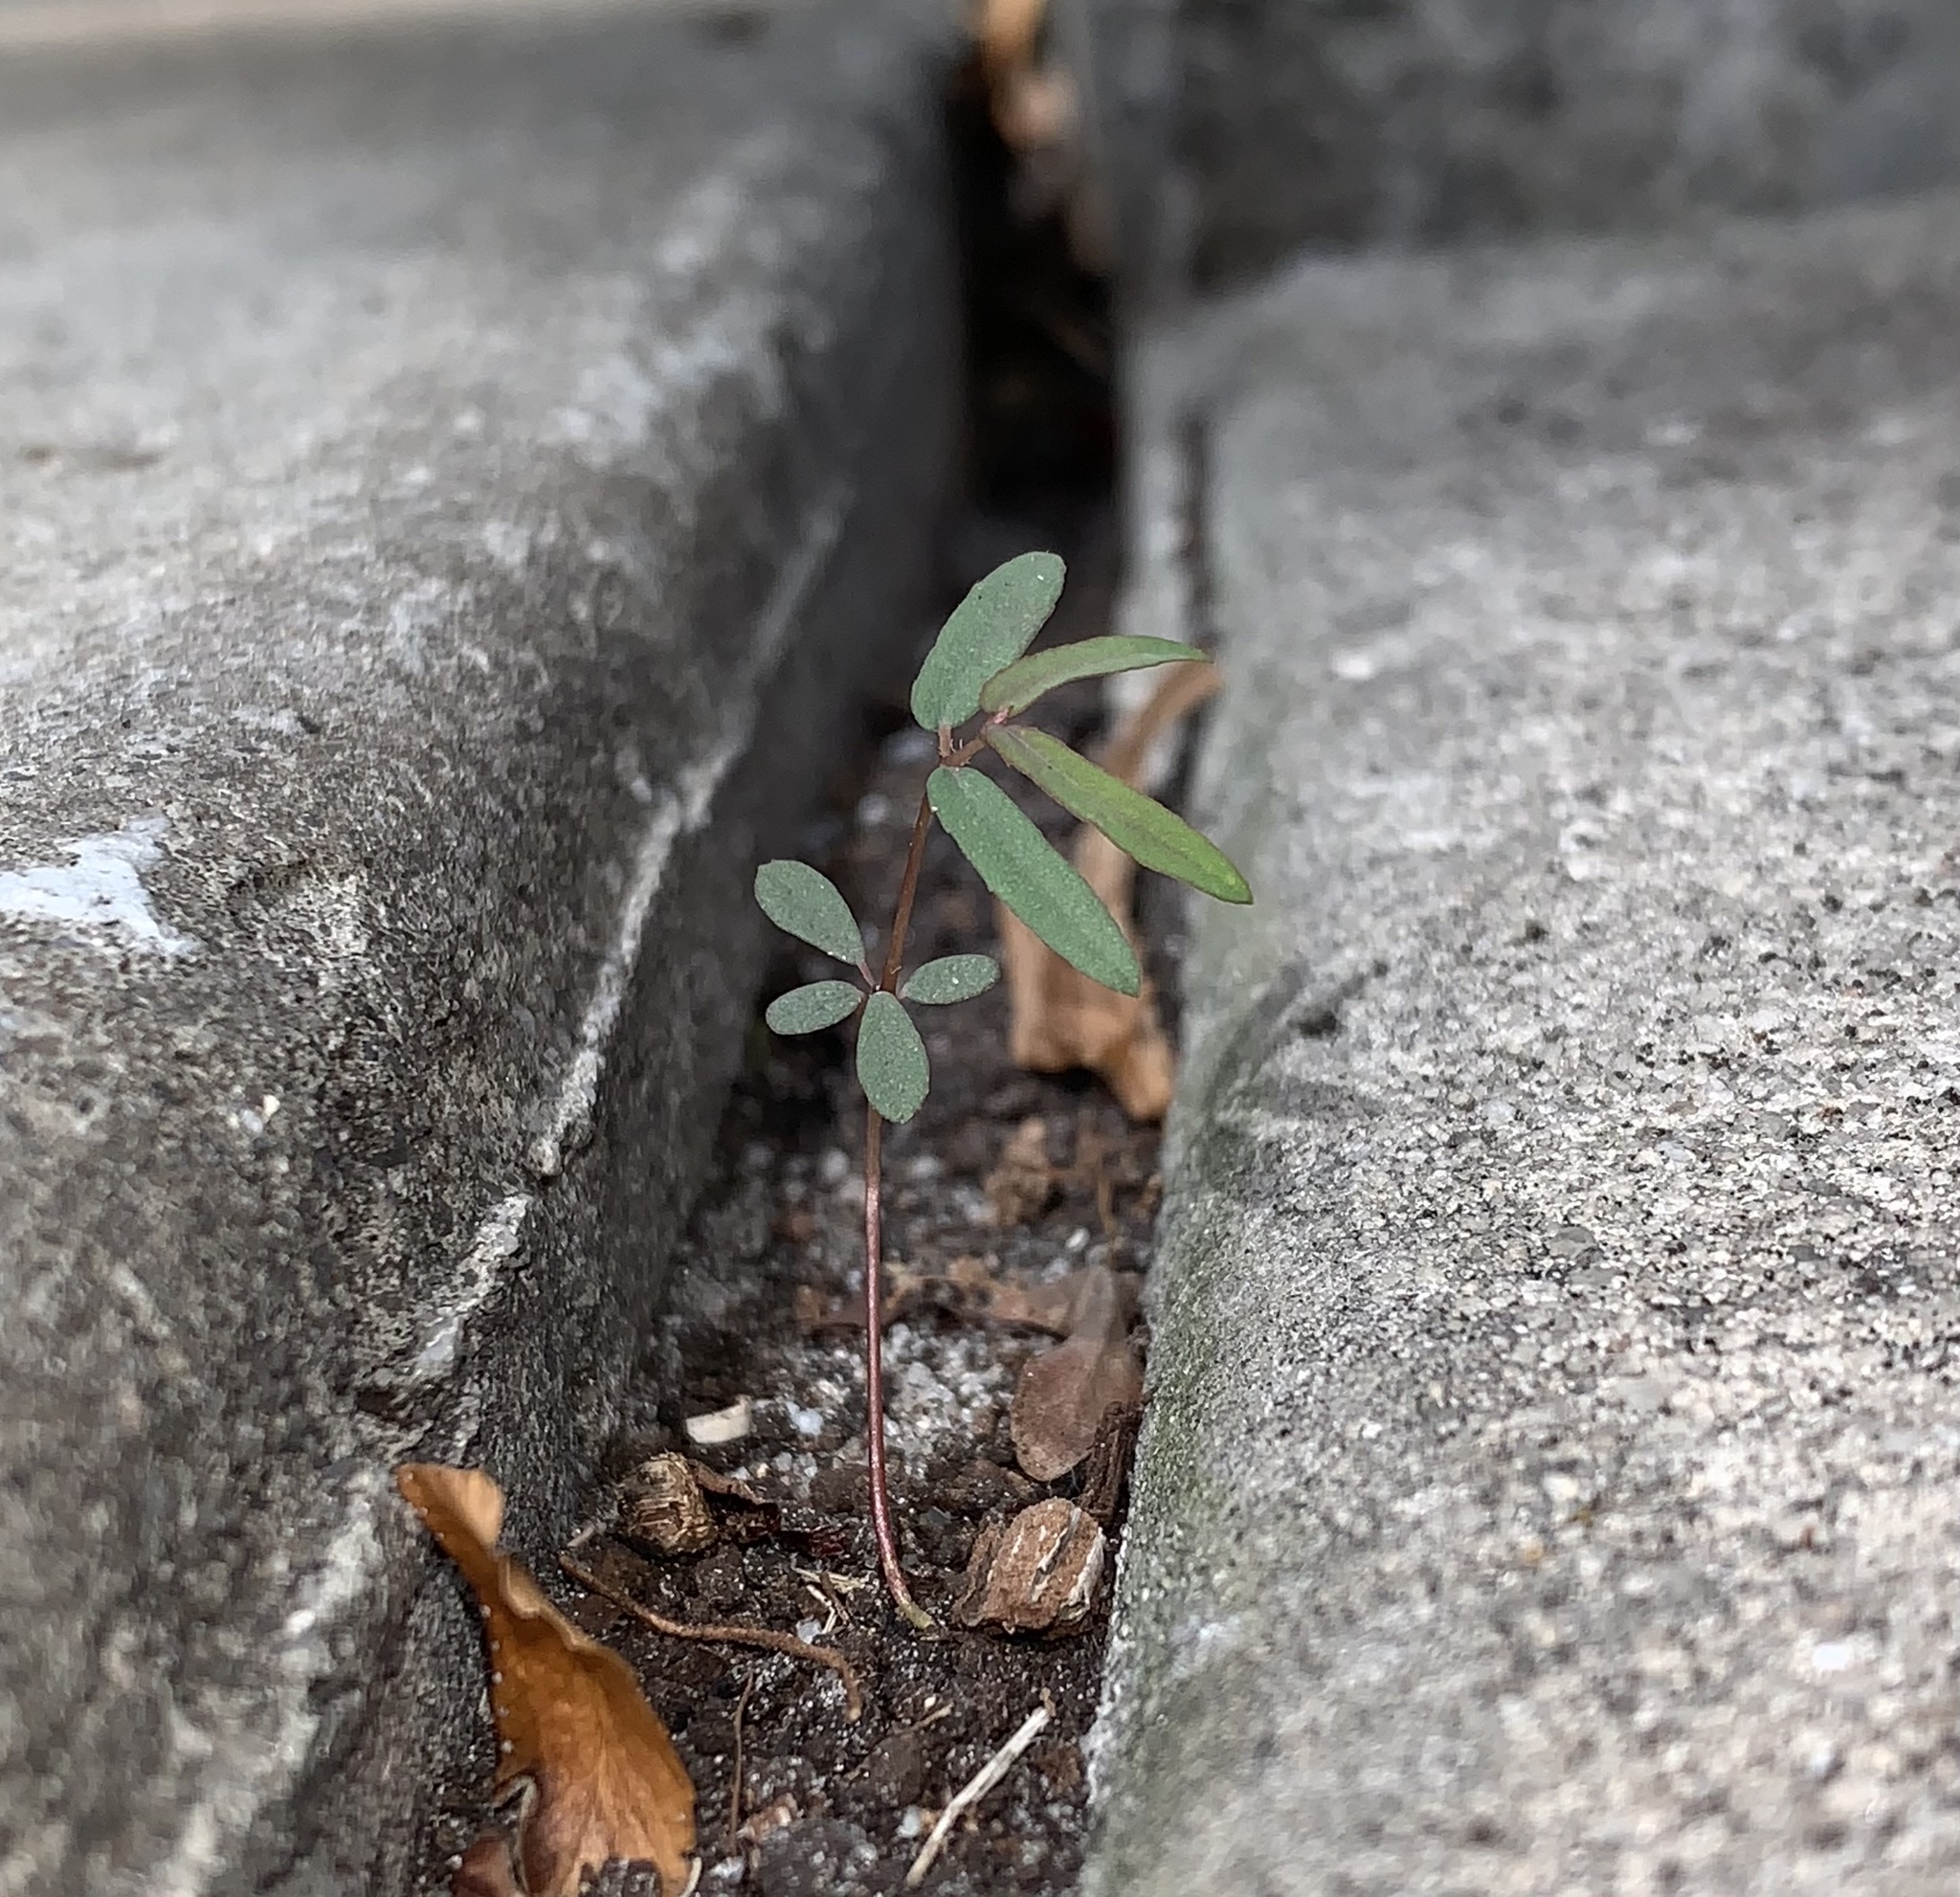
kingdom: Plantae
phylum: Tracheophyta
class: Magnoliopsida
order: Malpighiales
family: Euphorbiaceae
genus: Euphorbia
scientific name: Euphorbia hypericifolia
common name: Graceful sandmat
